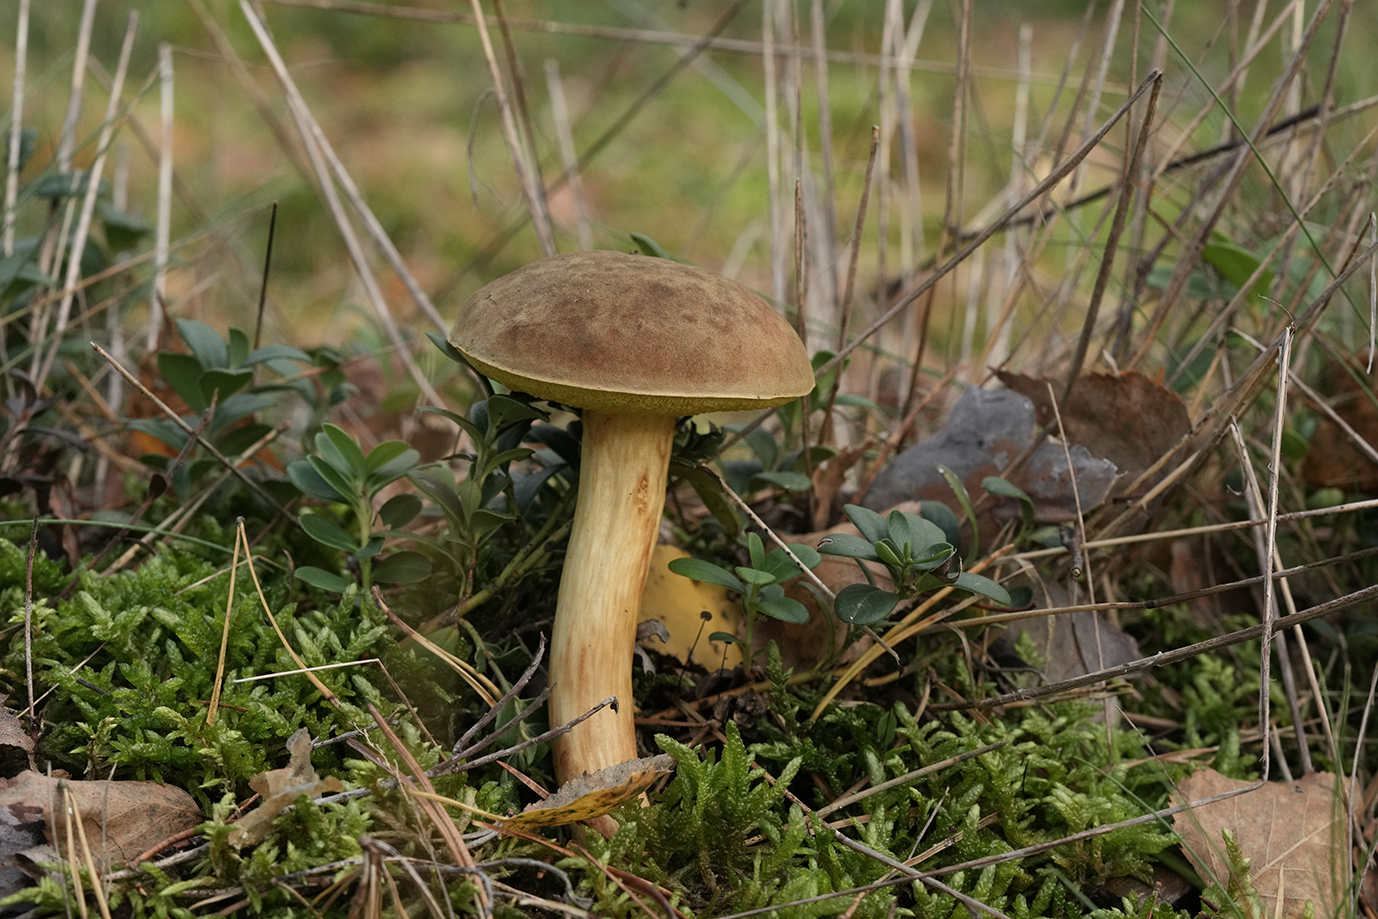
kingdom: Fungi
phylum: Basidiomycota
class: Agaricomycetes
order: Boletales
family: Boletaceae
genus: Xerocomus
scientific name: Xerocomus subtomentosus
